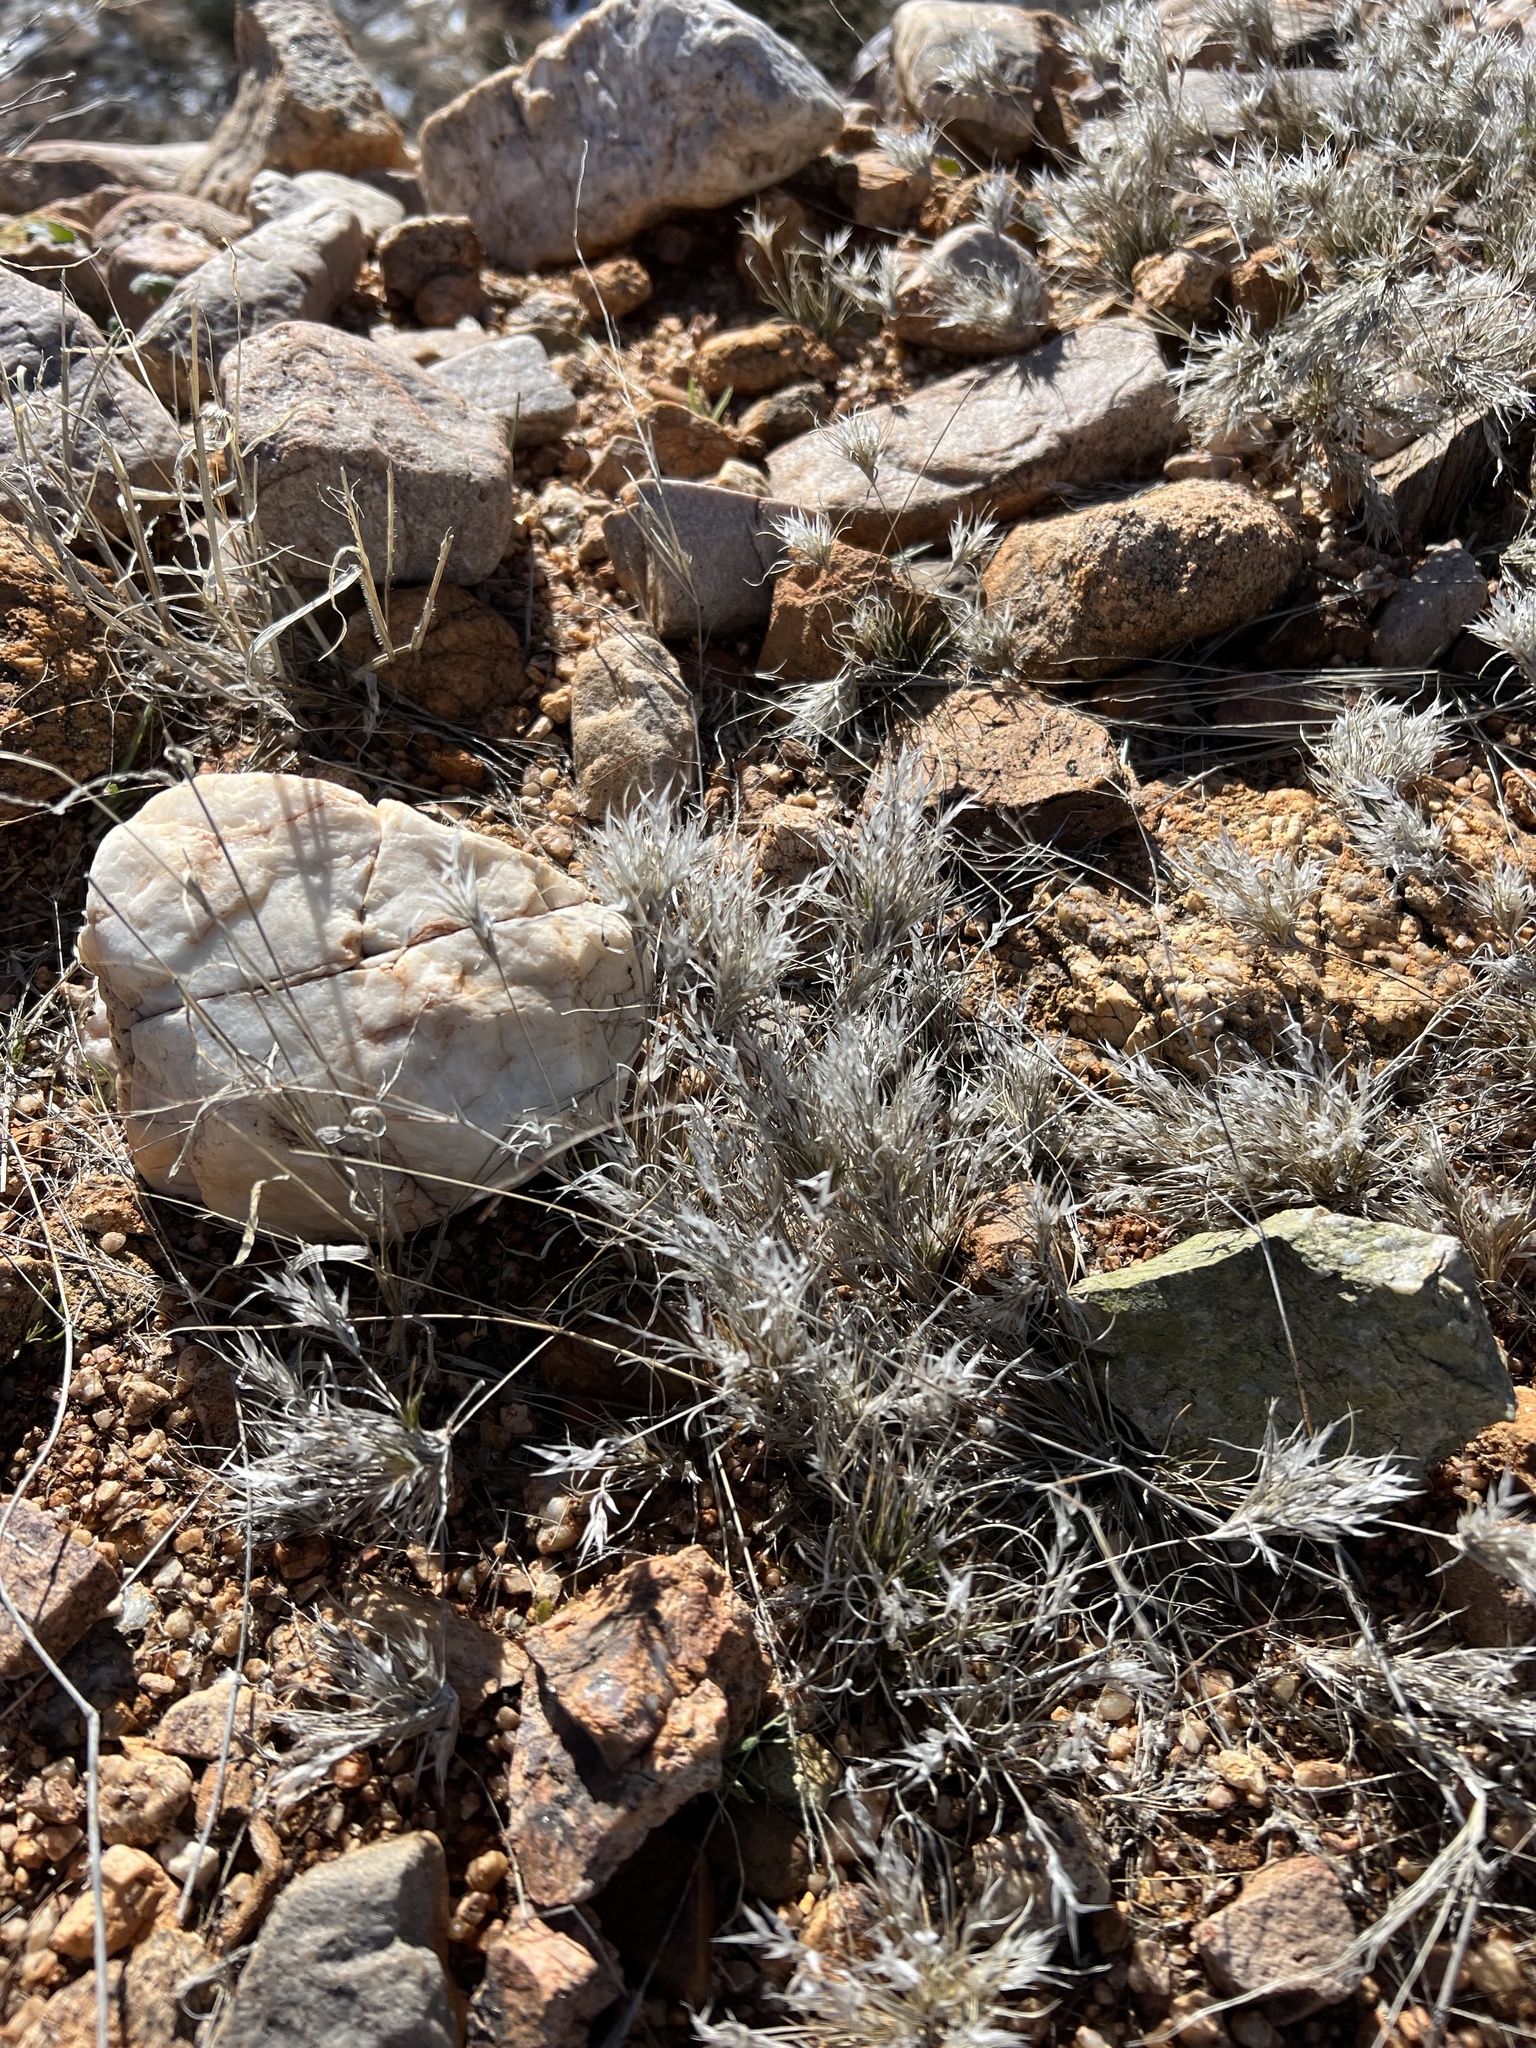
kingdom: Plantae
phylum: Tracheophyta
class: Liliopsida
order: Poales
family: Poaceae
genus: Dasyochloa
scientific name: Dasyochloa pulchella
